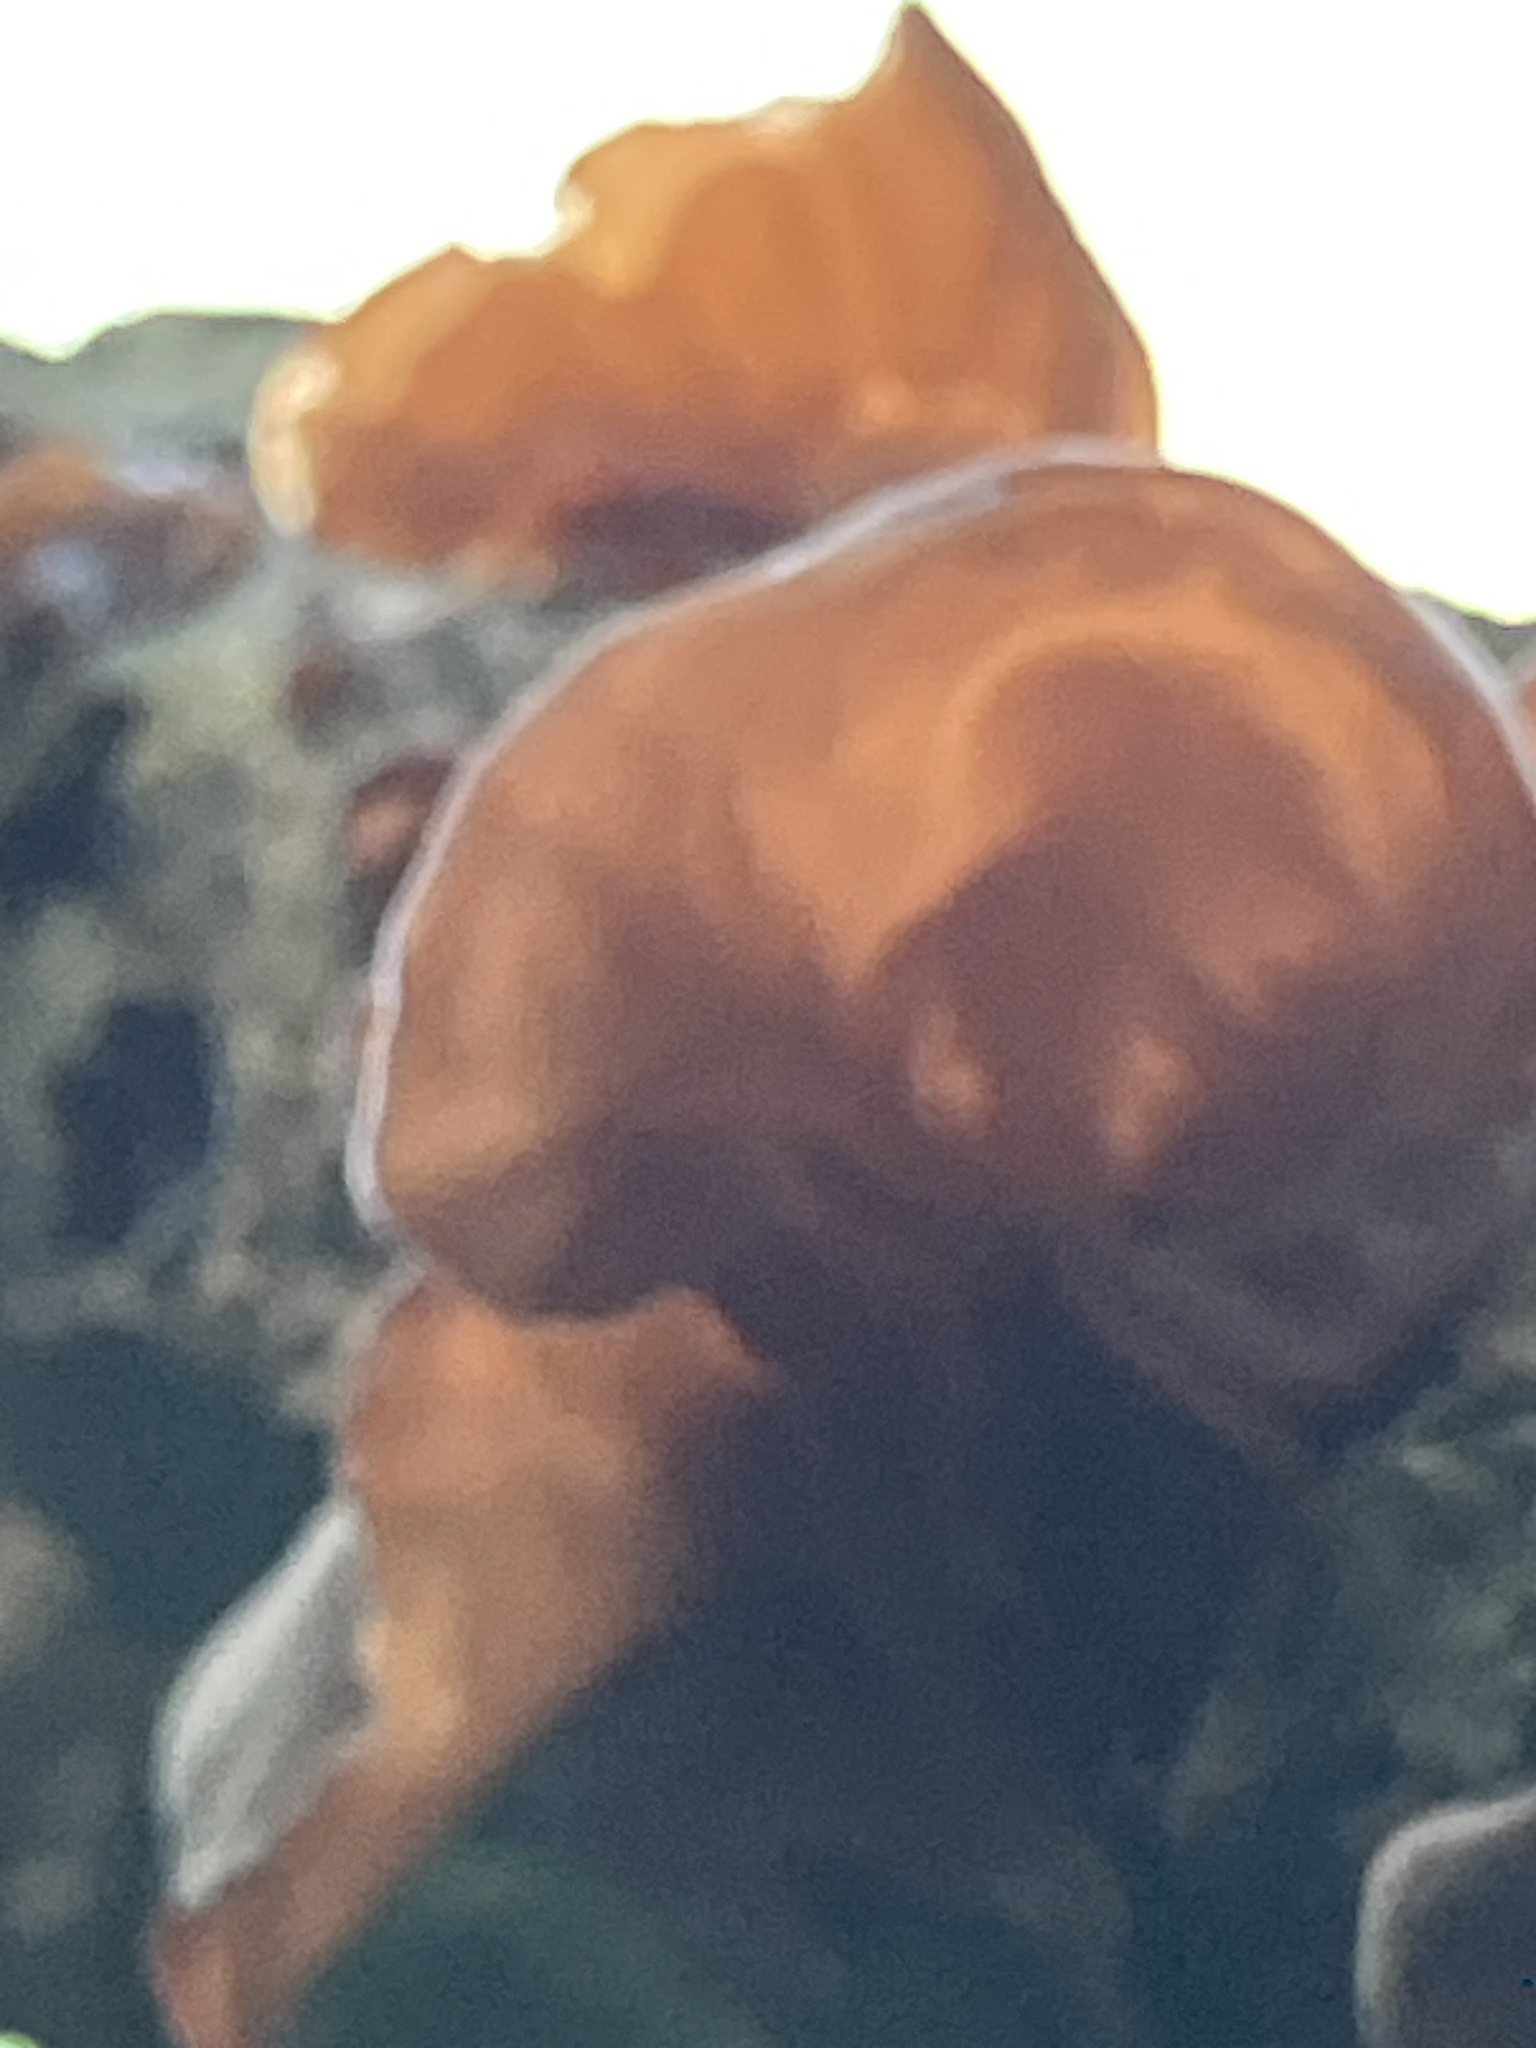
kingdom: Fungi
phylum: Basidiomycota
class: Agaricomycetes
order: Auriculariales
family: Auriculariaceae
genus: Auricularia
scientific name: Auricularia auricula-judae
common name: Jelly ear
